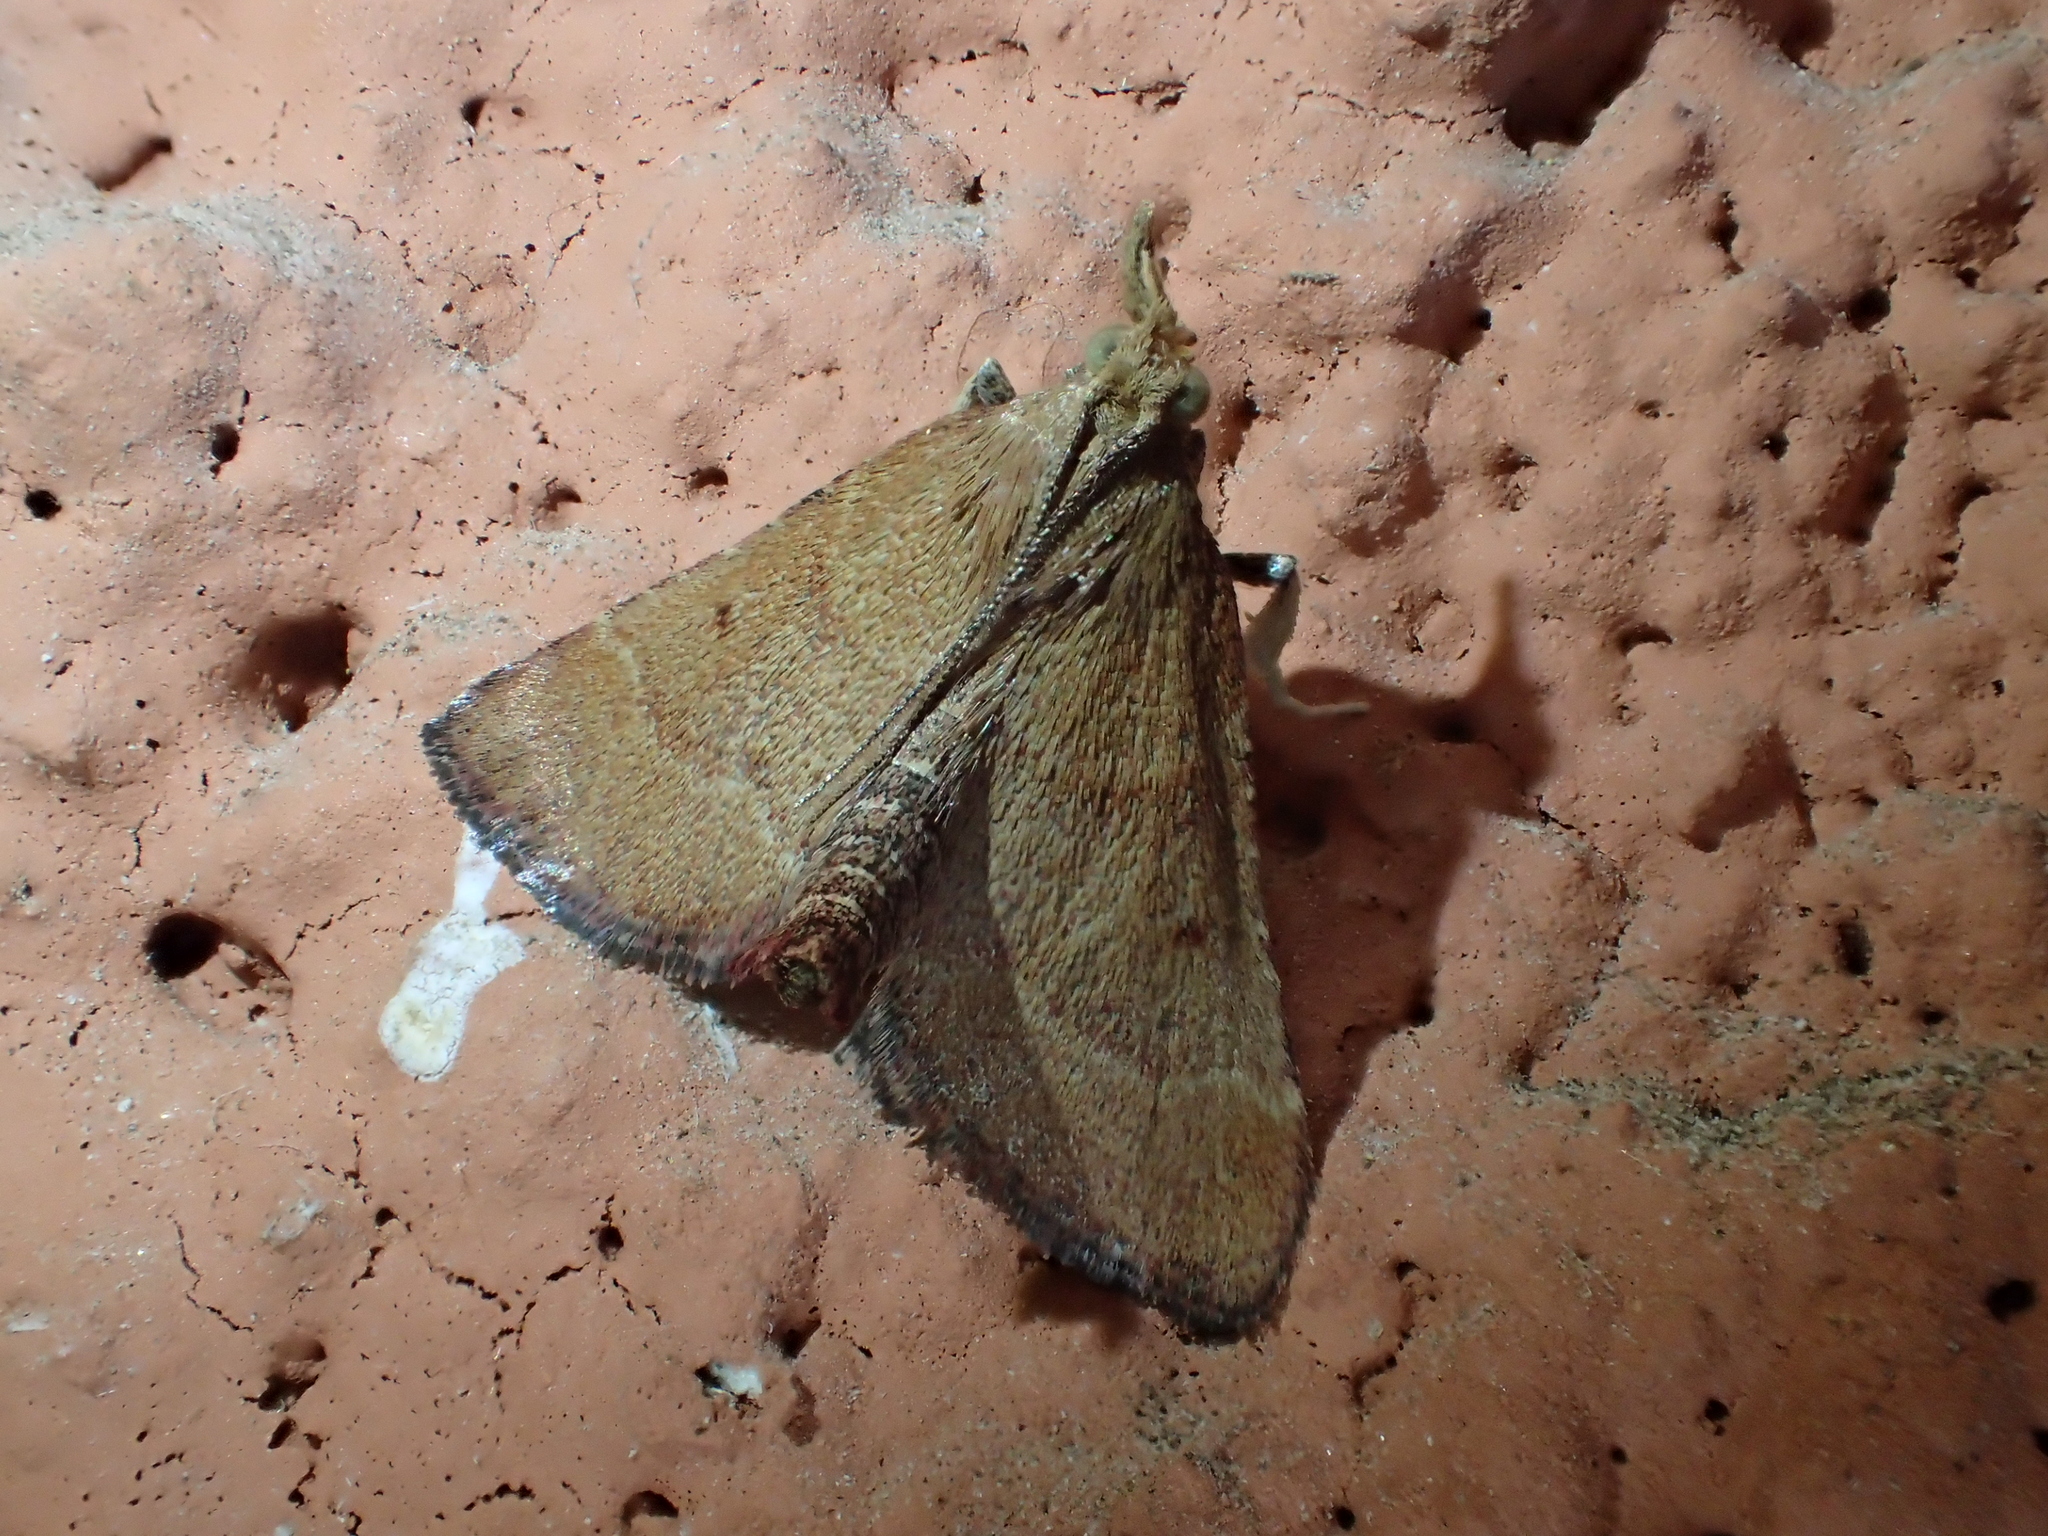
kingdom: Animalia
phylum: Arthropoda
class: Insecta
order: Lepidoptera
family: Pyralidae
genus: Stemmatophora
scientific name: Stemmatophora vulpecalis
